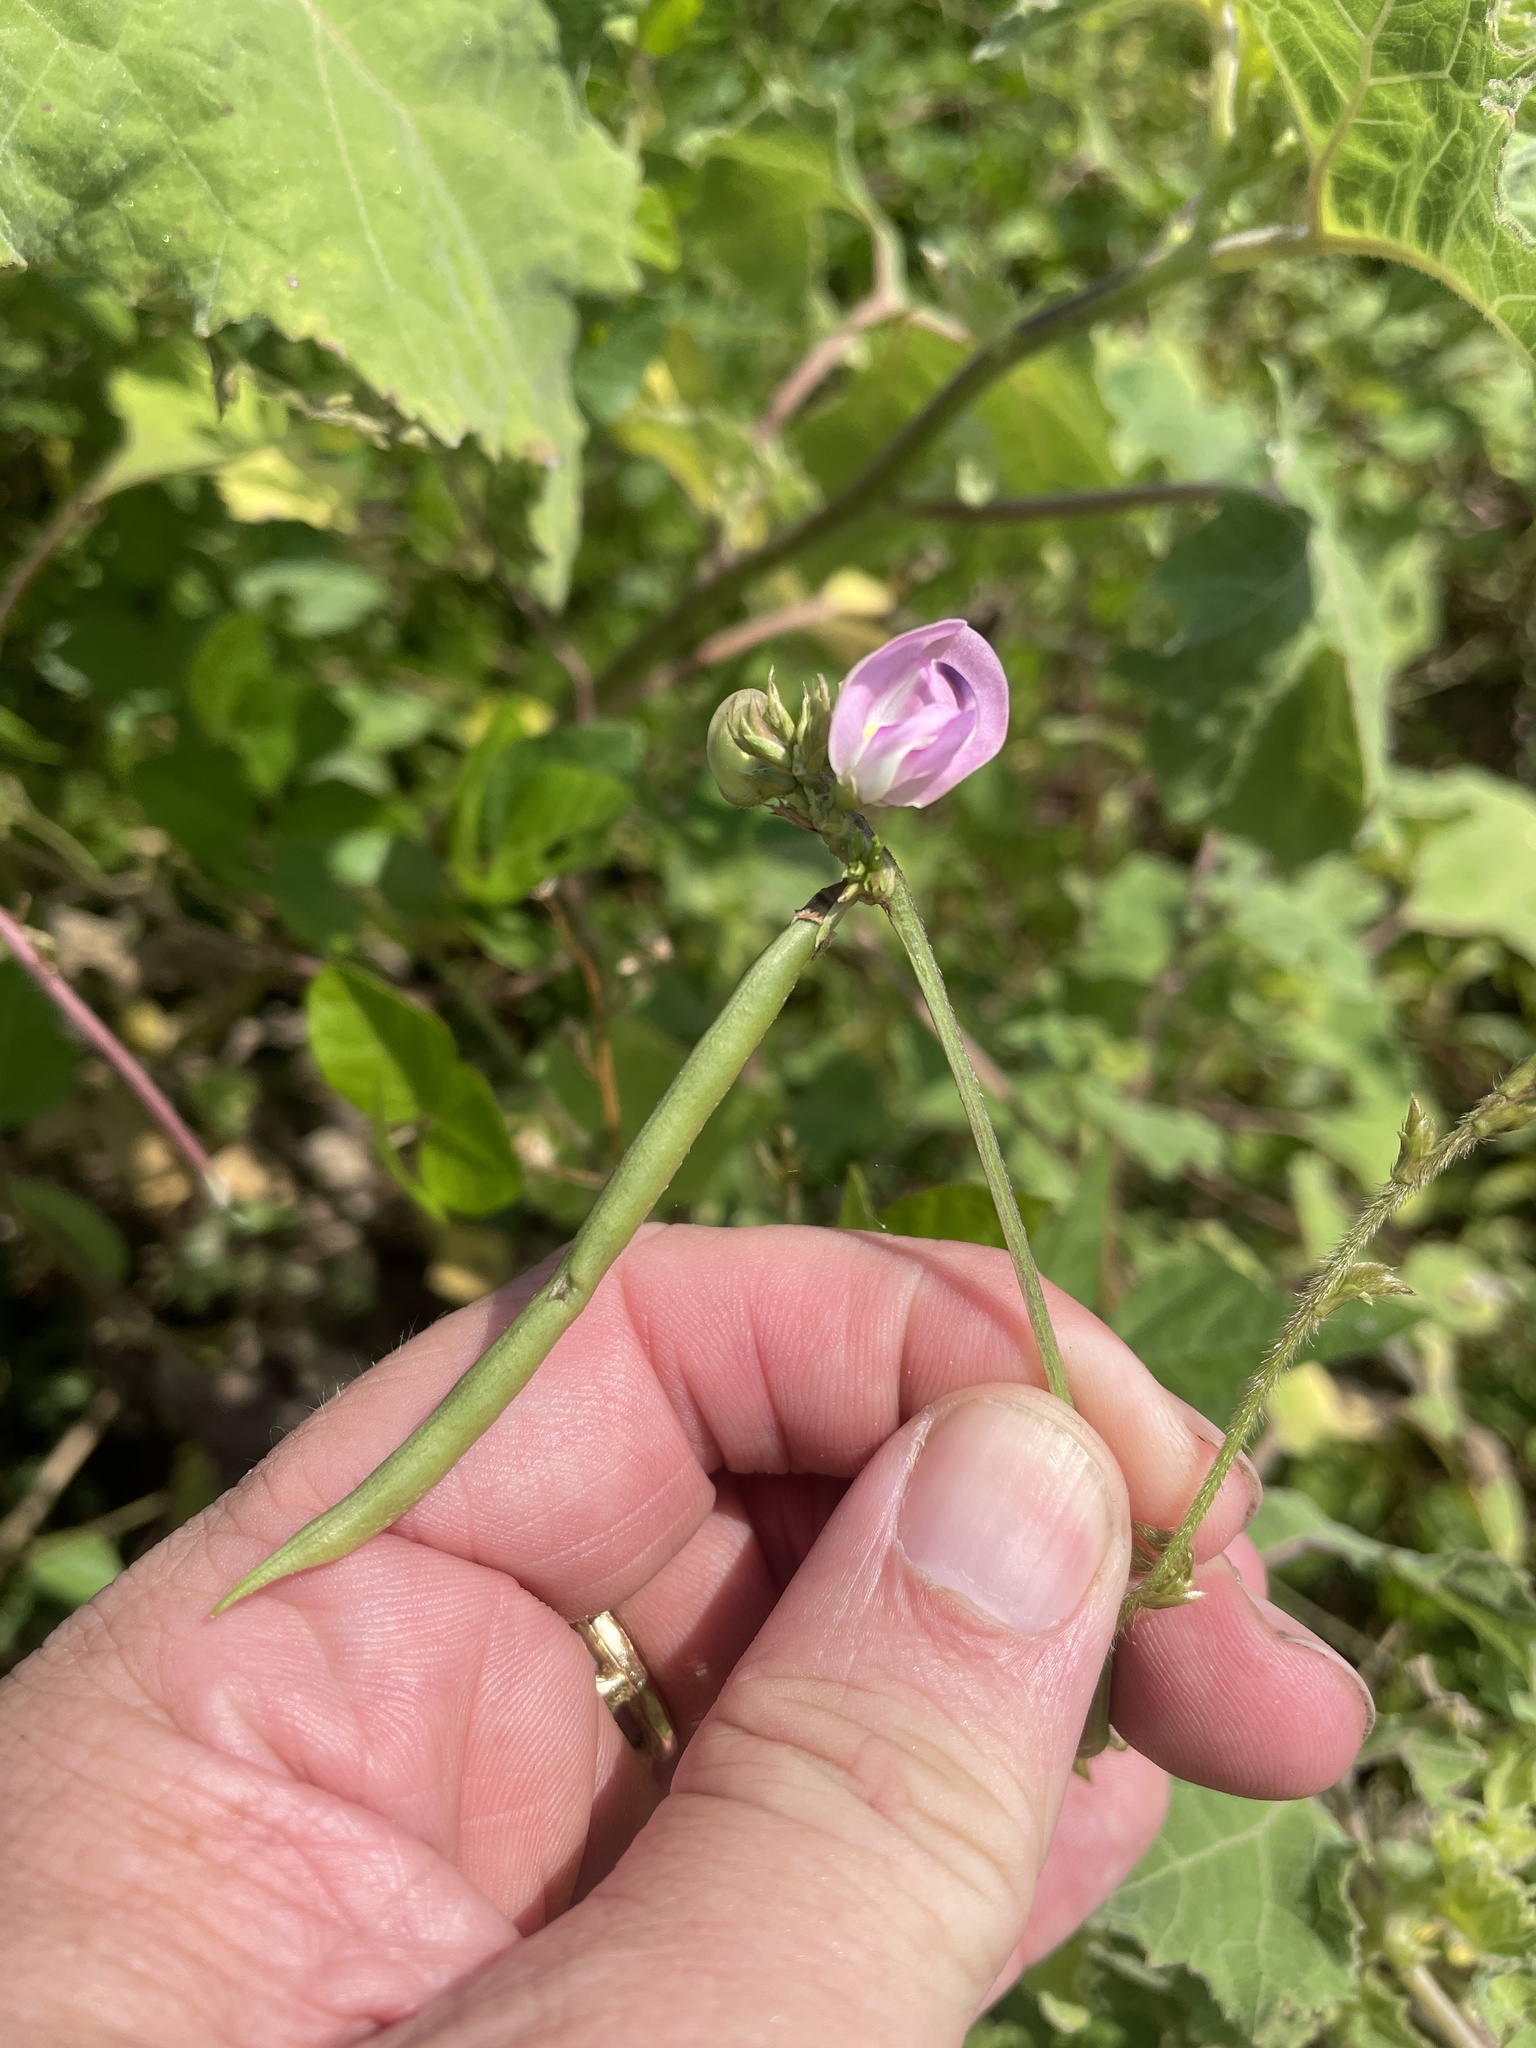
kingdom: Plantae
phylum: Tracheophyta
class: Magnoliopsida
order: Fabales
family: Fabaceae
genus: Strophostyles
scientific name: Strophostyles helvola
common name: Trailing wild bean
